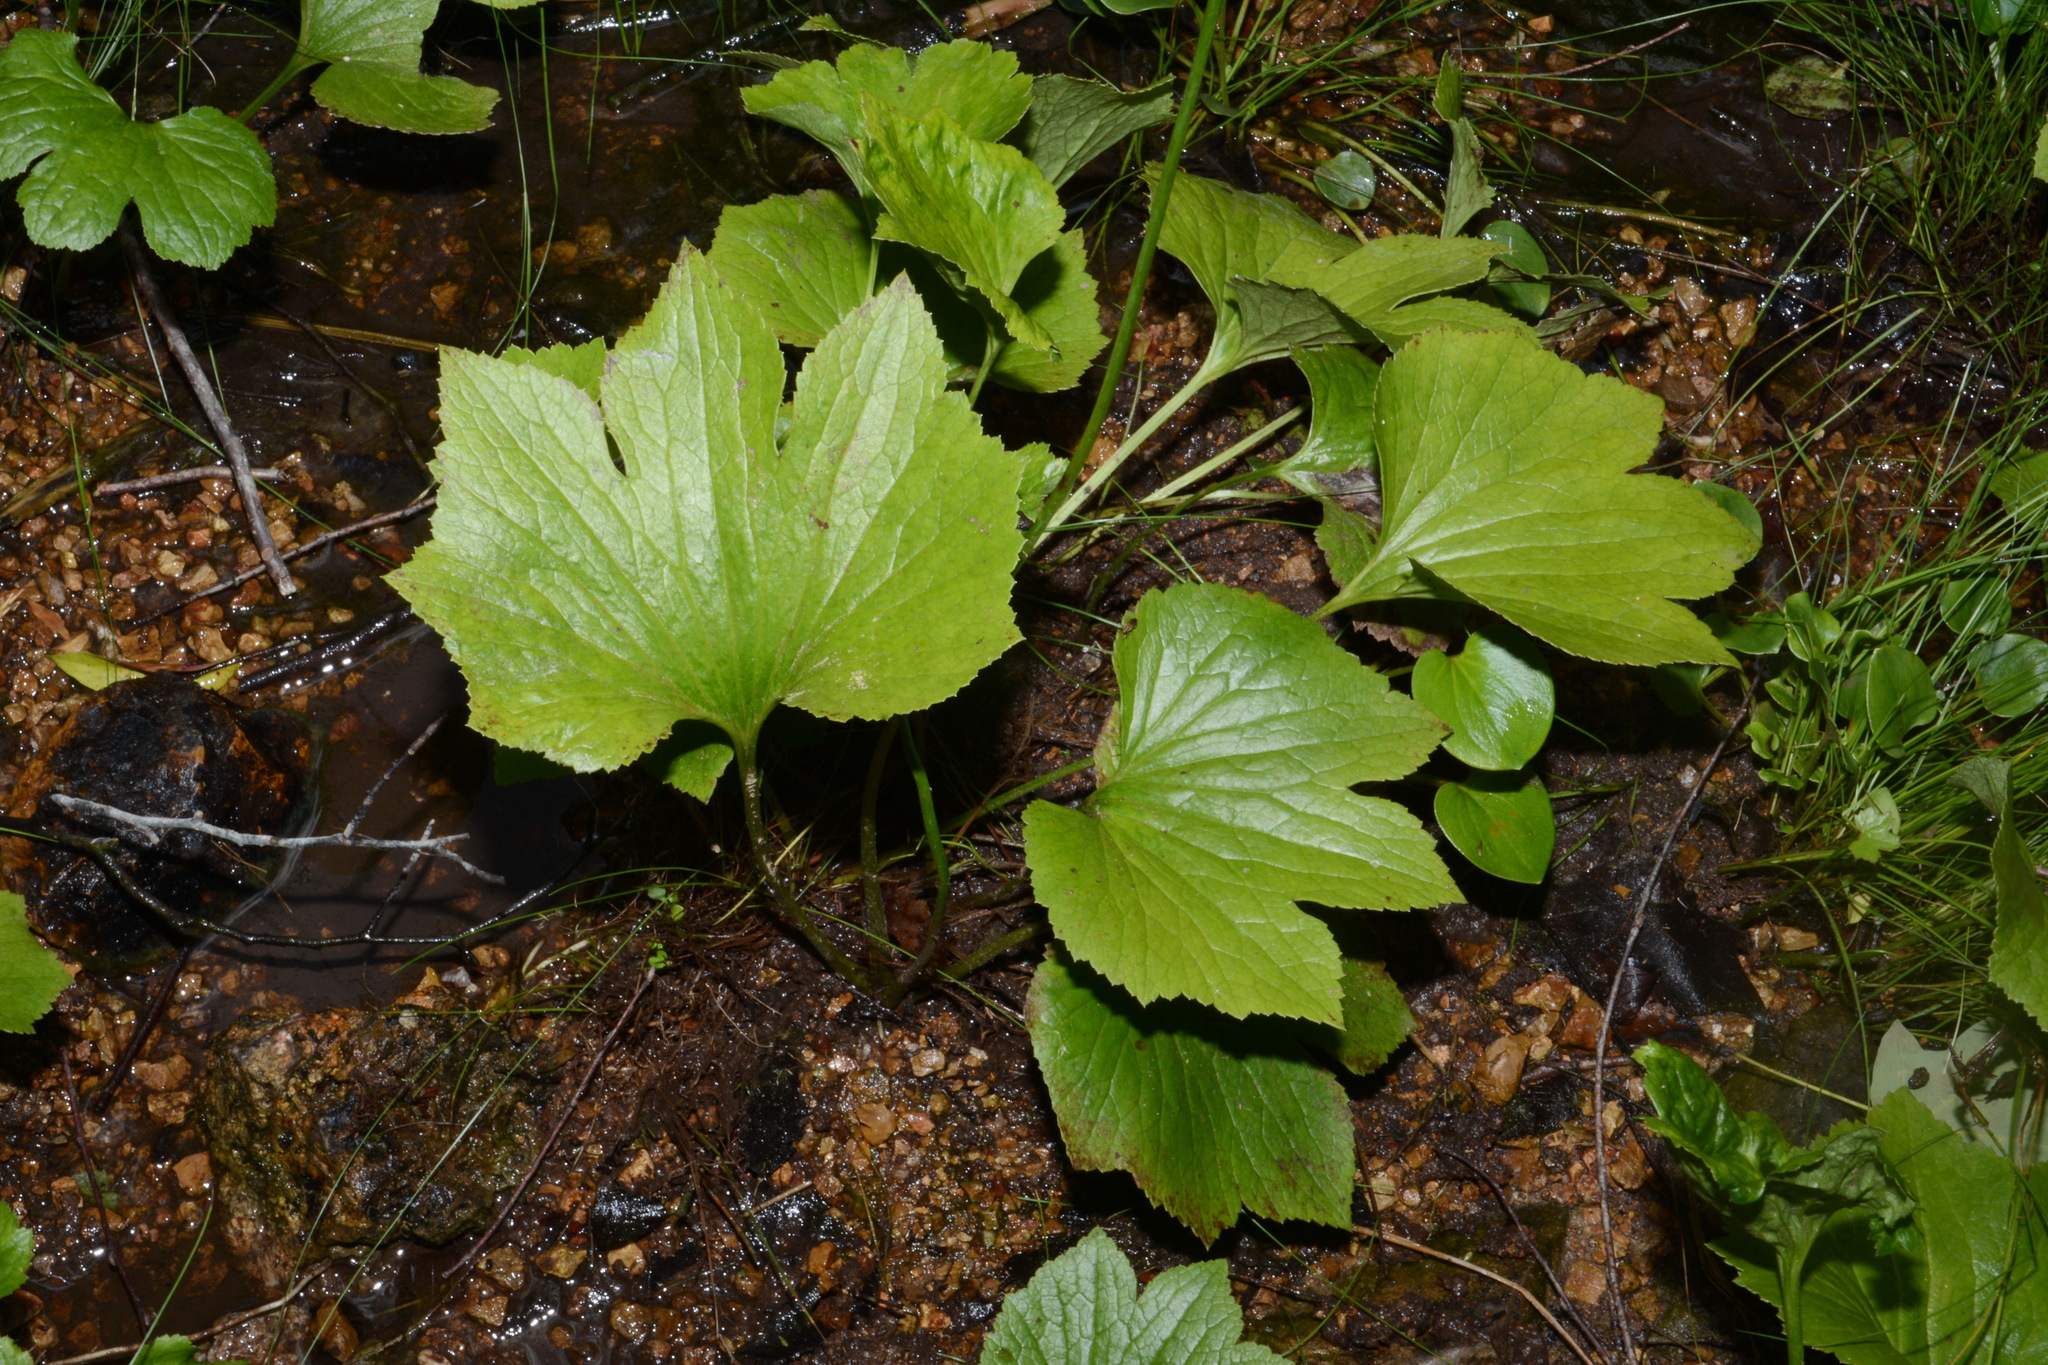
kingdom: Plantae
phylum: Tracheophyta
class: Magnoliopsida
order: Ranunculales
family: Ranunculaceae
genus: Trautvetteria
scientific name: Trautvetteria fonticalcarea
